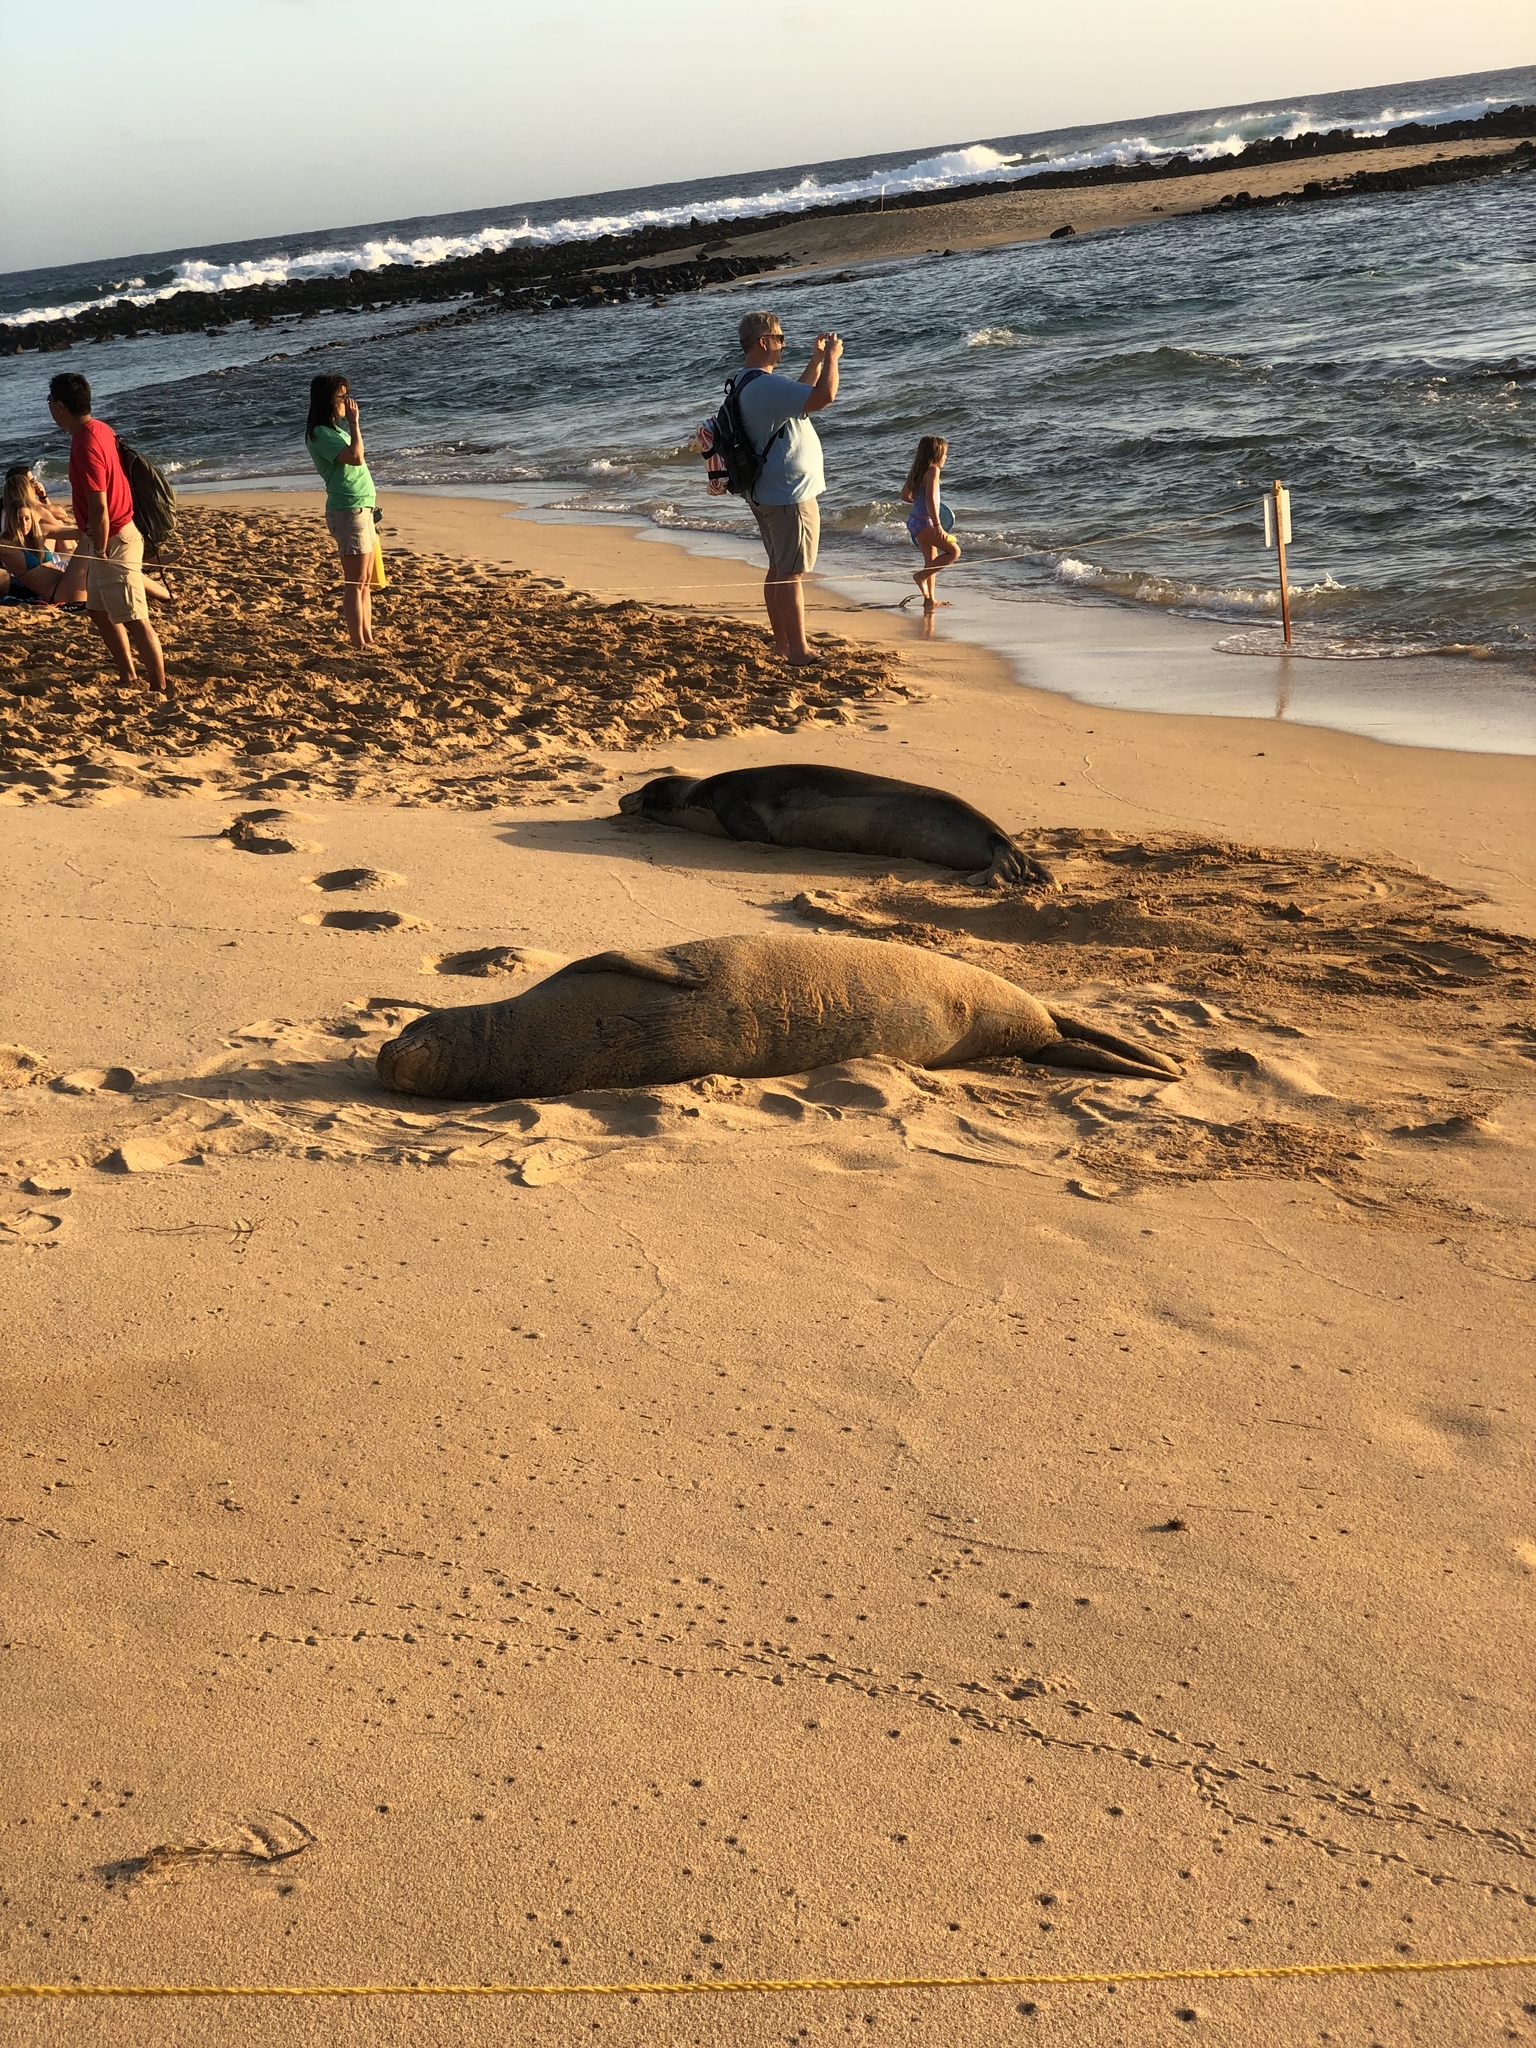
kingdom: Animalia
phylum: Chordata
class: Mammalia
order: Carnivora
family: Phocidae
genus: Neomonachus
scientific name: Neomonachus schauinslandi
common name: Hawaiian monk seal
